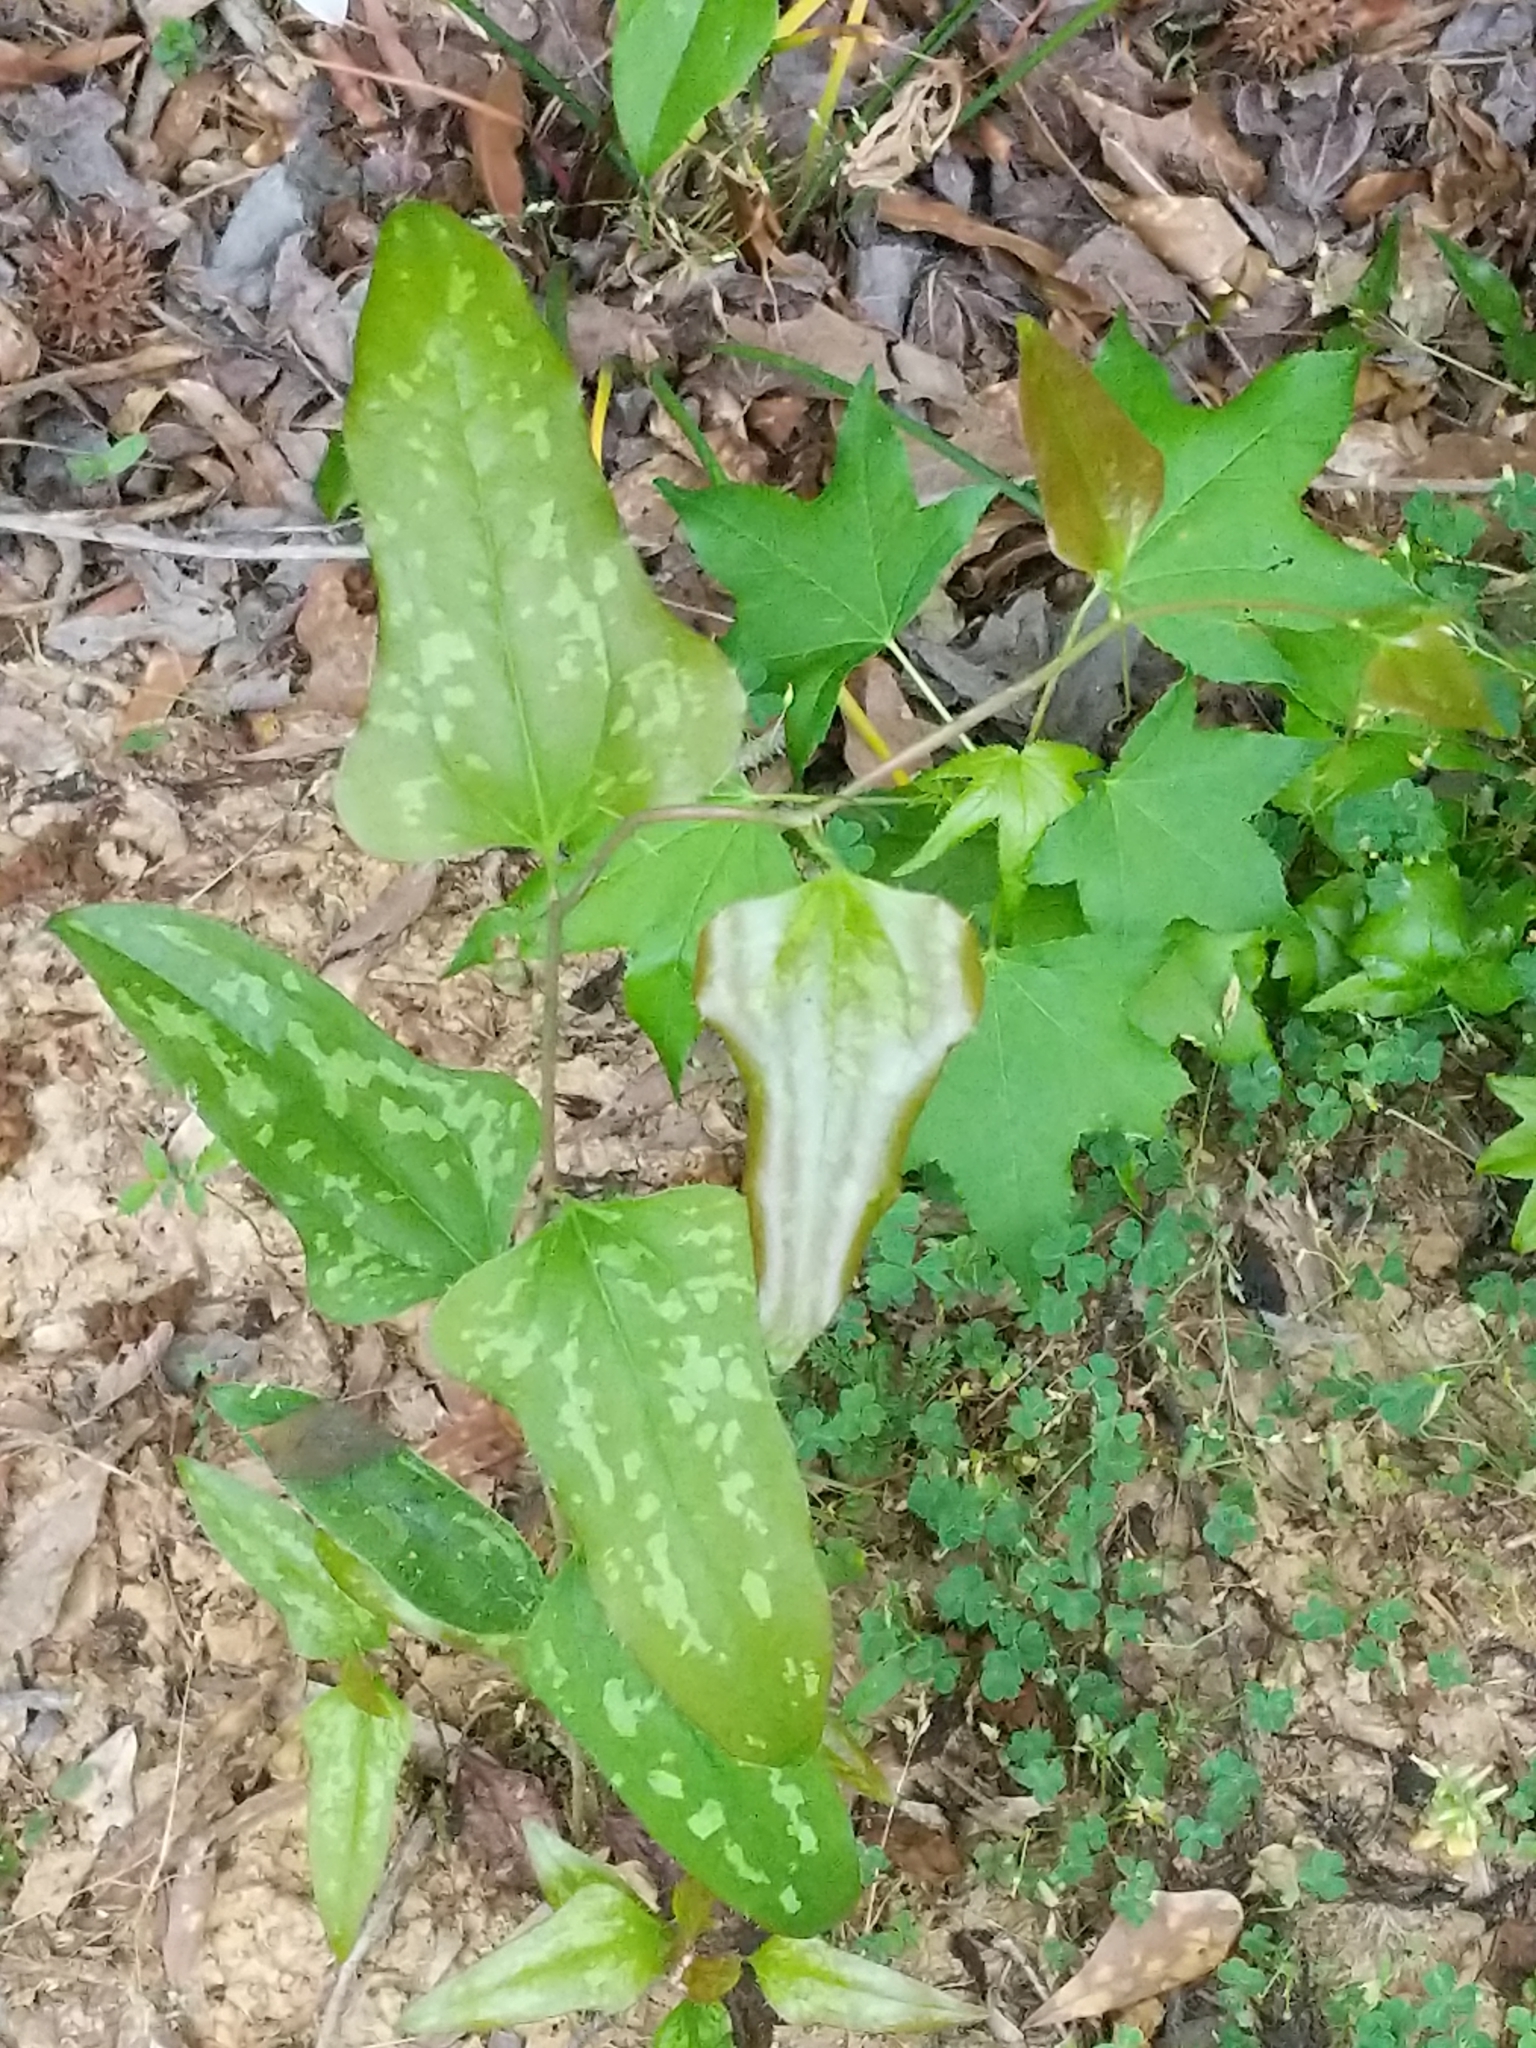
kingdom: Plantae
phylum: Tracheophyta
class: Liliopsida
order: Liliales
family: Smilacaceae
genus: Smilax
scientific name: Smilax bona-nox
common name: Catbrier
